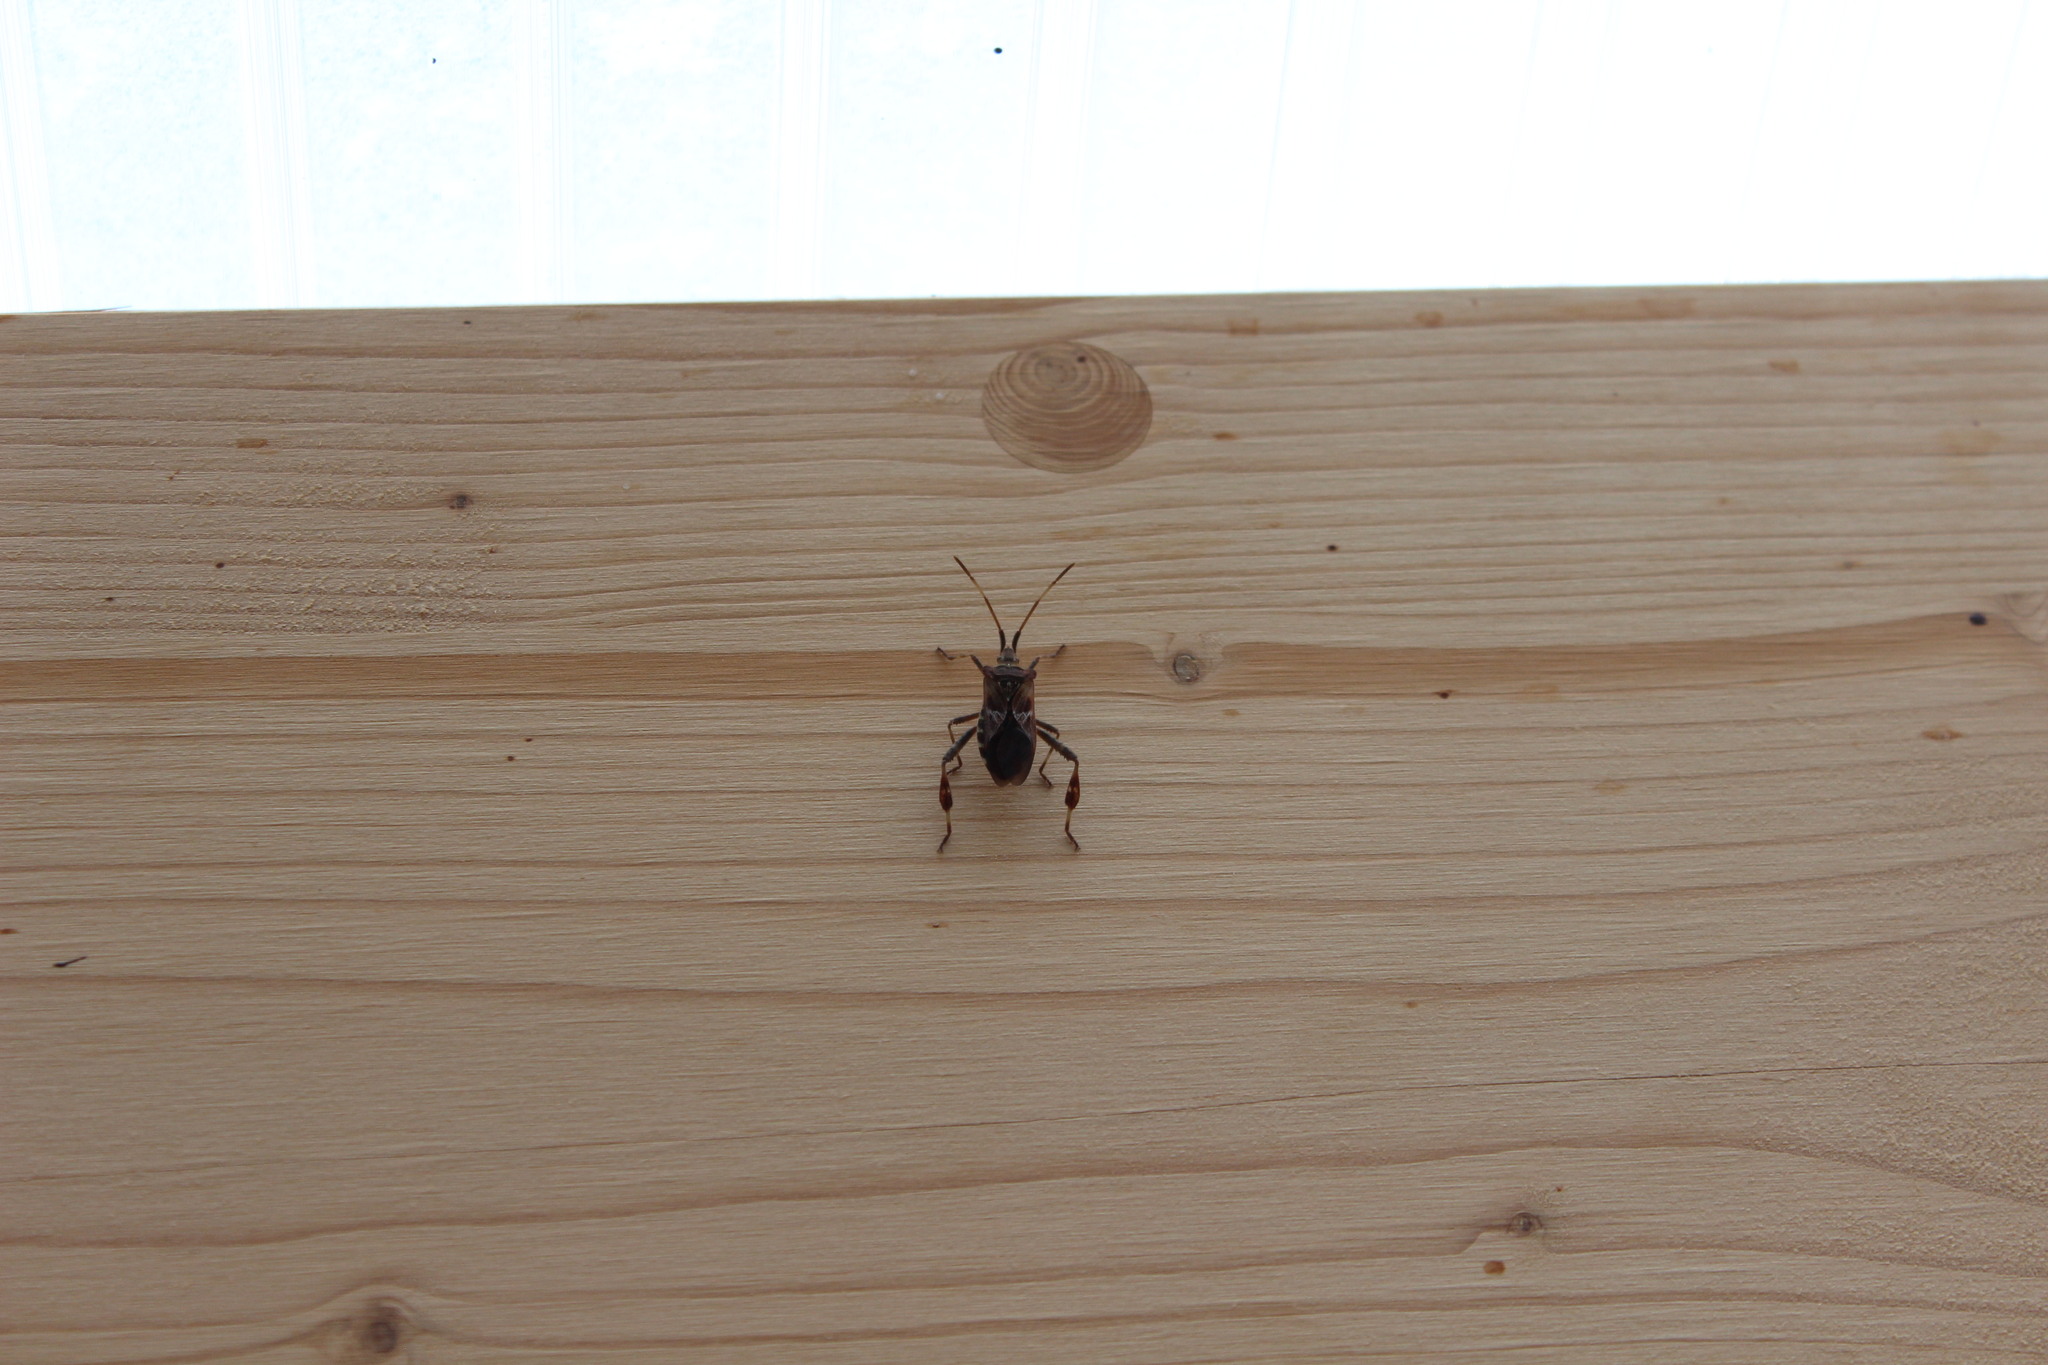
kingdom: Animalia
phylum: Arthropoda
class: Insecta
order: Hemiptera
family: Coreidae
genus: Leptoglossus
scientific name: Leptoglossus occidentalis
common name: Western conifer-seed bug
